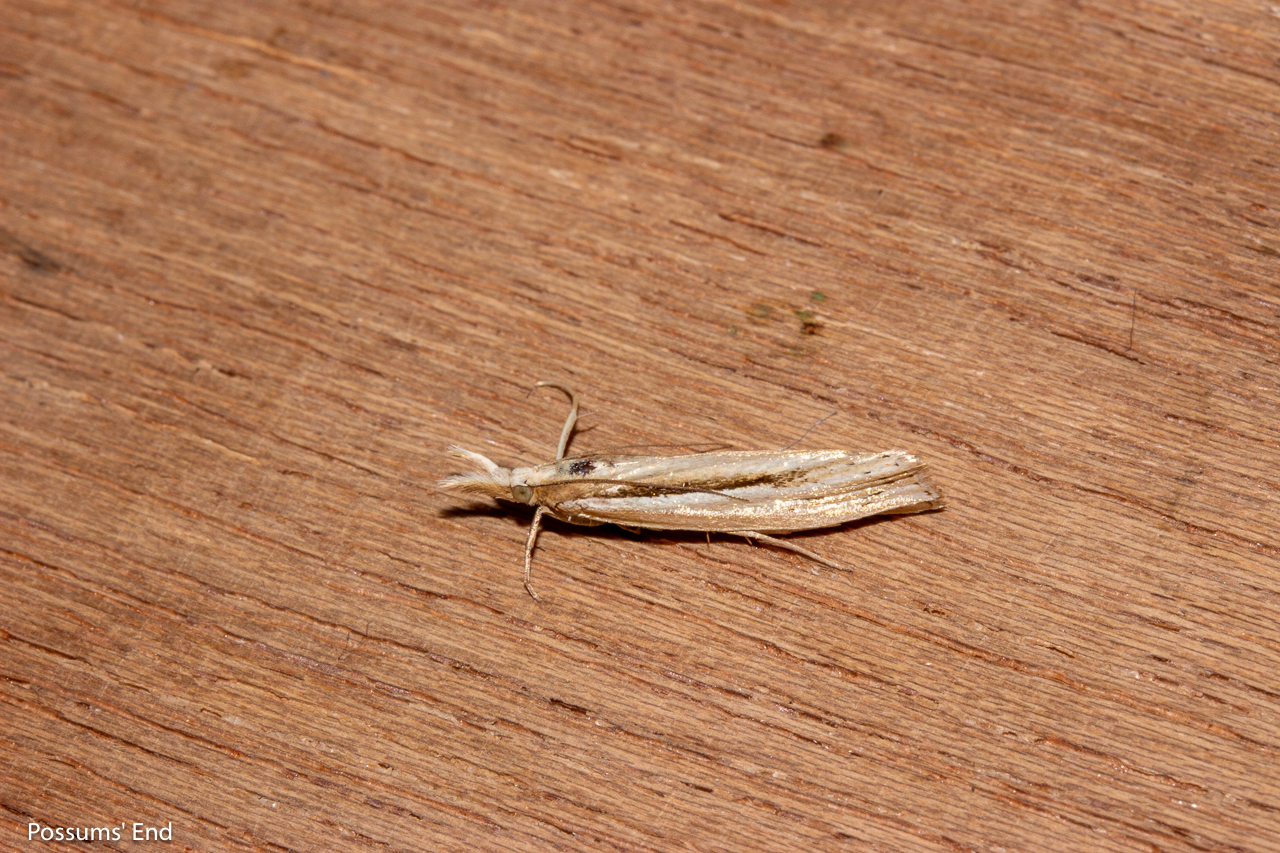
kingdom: Animalia
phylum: Arthropoda
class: Insecta
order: Lepidoptera
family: Crambidae
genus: Orocrambus
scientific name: Orocrambus ramosellus
